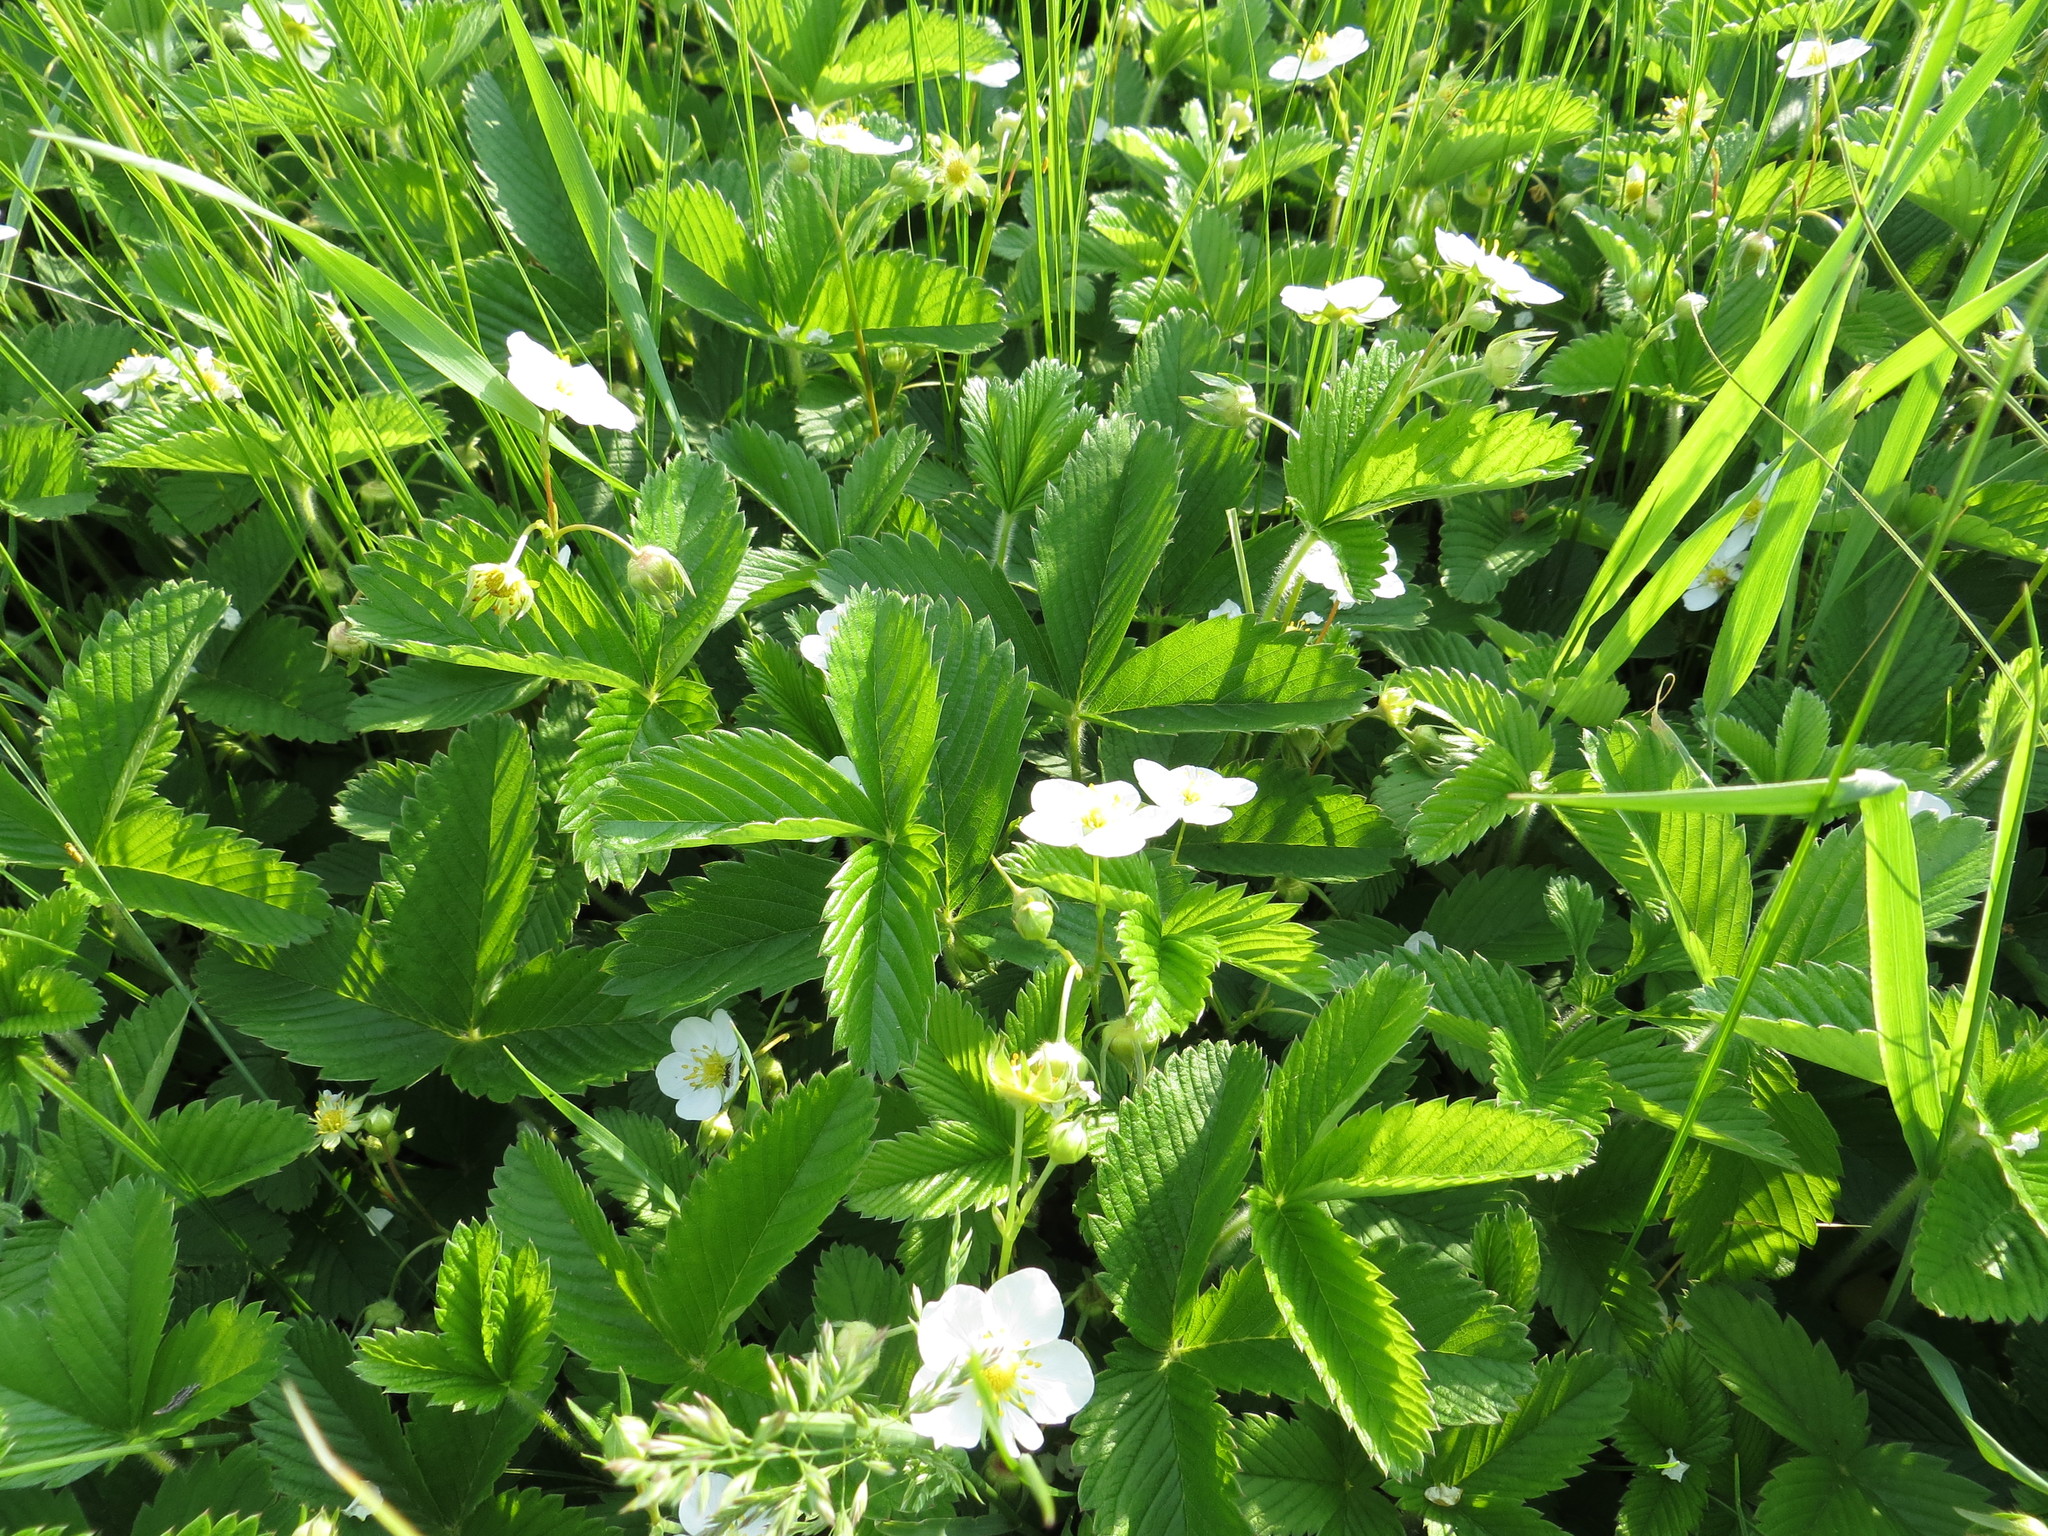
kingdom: Plantae
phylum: Tracheophyta
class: Magnoliopsida
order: Rosales
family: Rosaceae
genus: Fragaria
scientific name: Fragaria viridis
